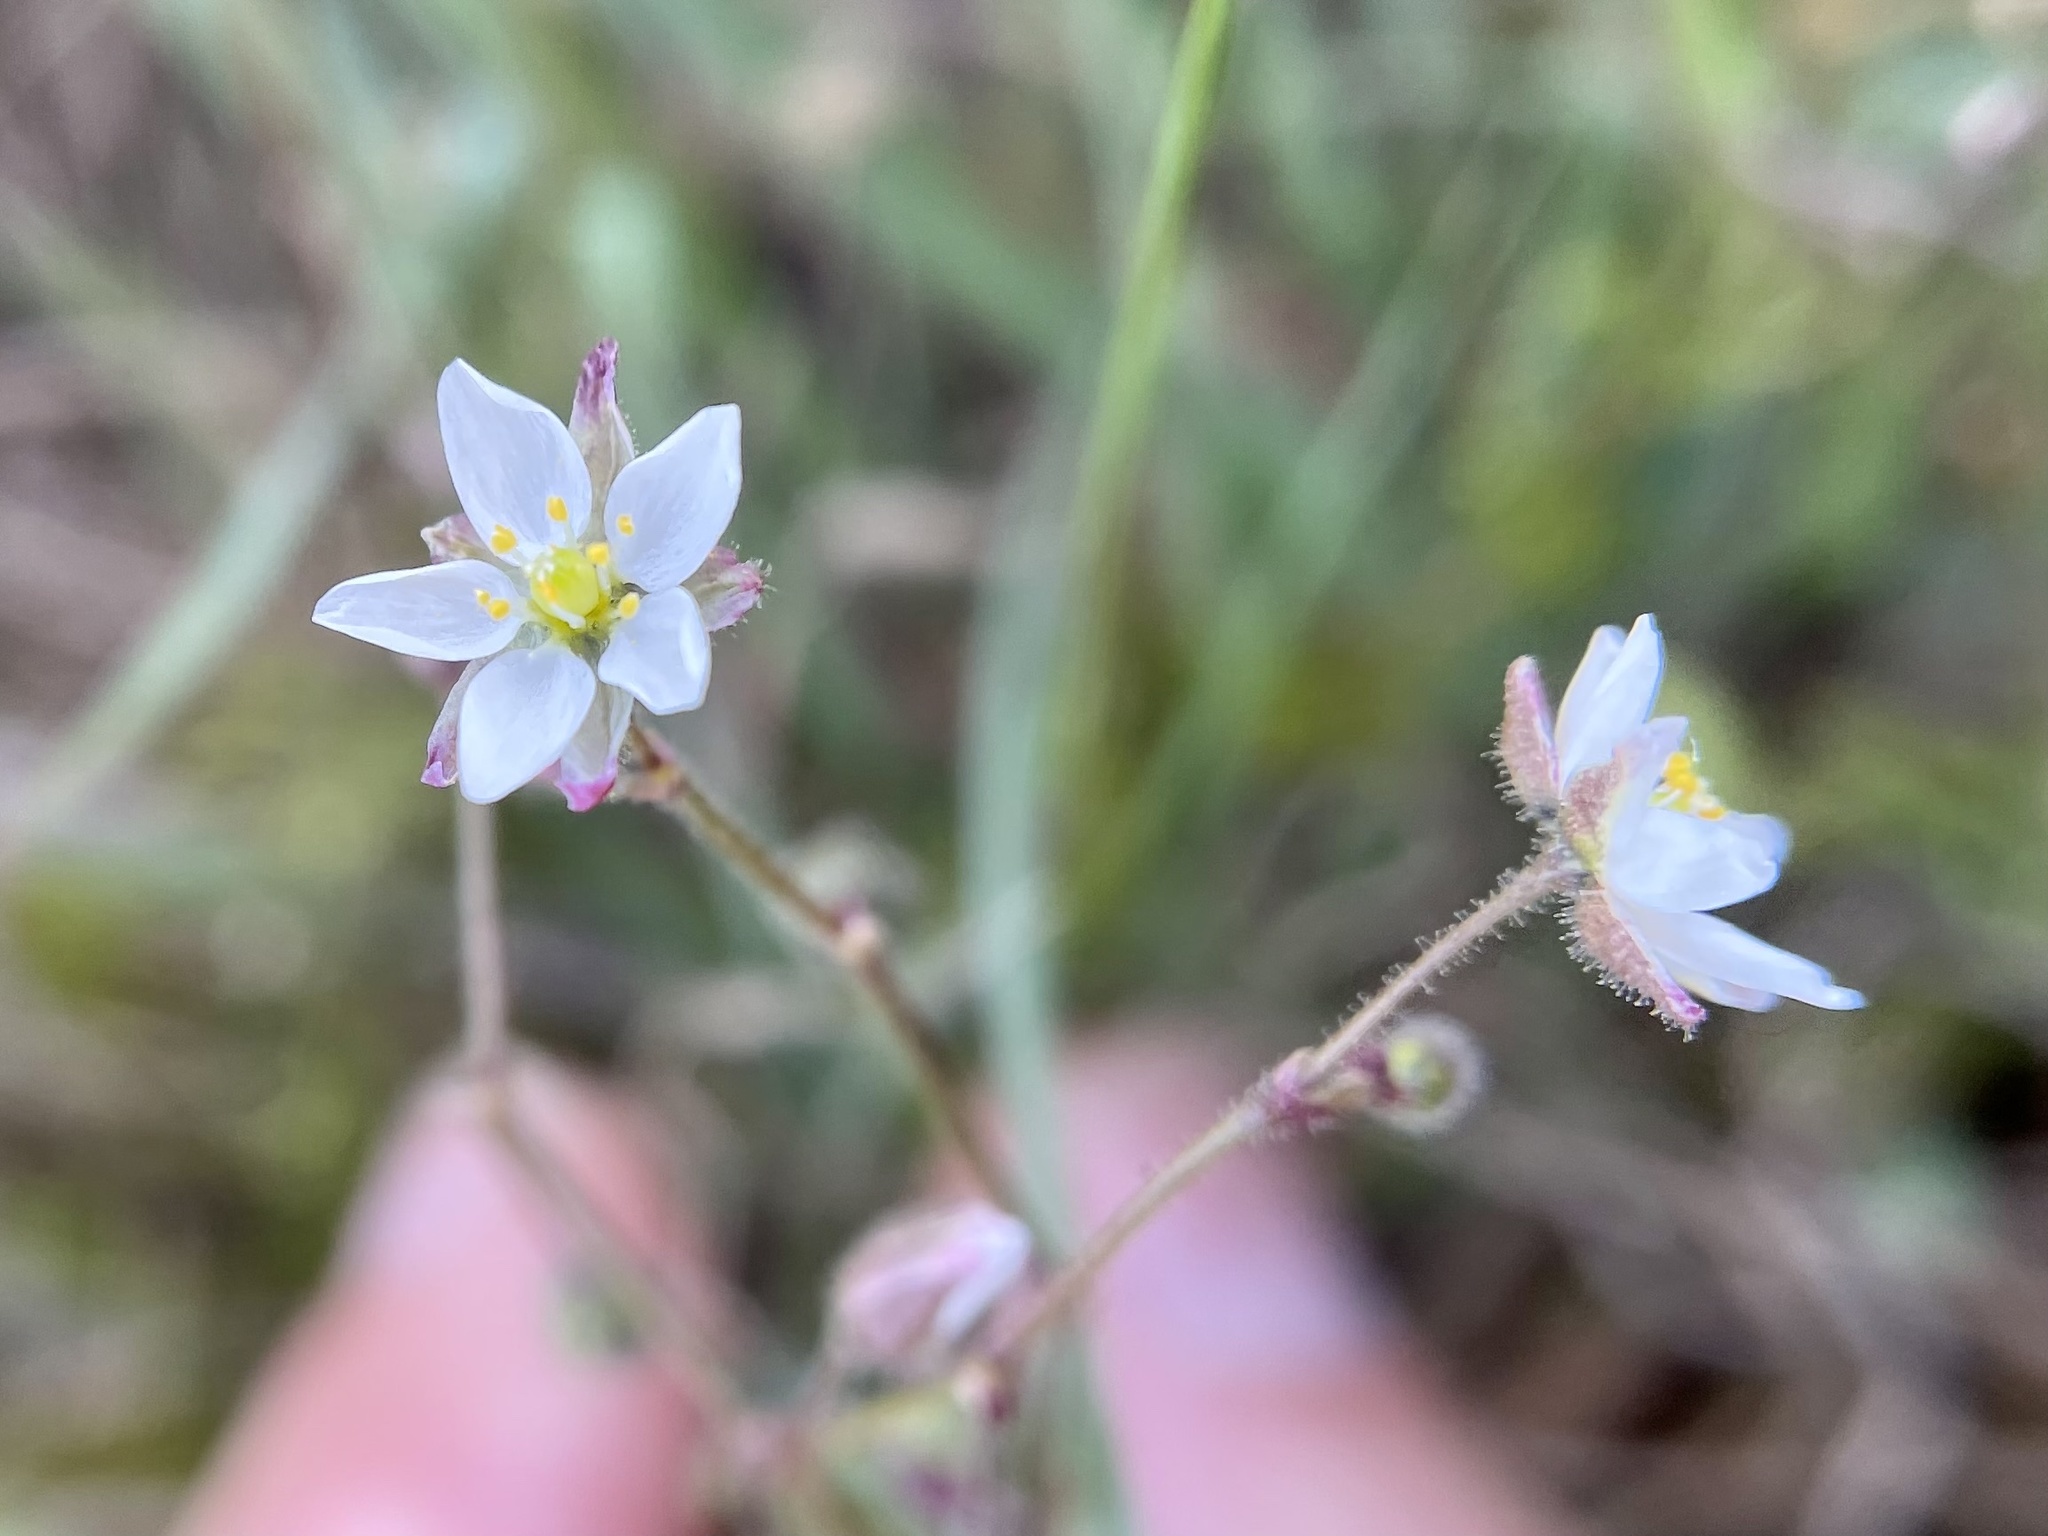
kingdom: Plantae
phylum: Tracheophyta
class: Magnoliopsida
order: Caryophyllales
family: Caryophyllaceae
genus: Spergula
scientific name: Spergula arvensis
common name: Corn spurrey
